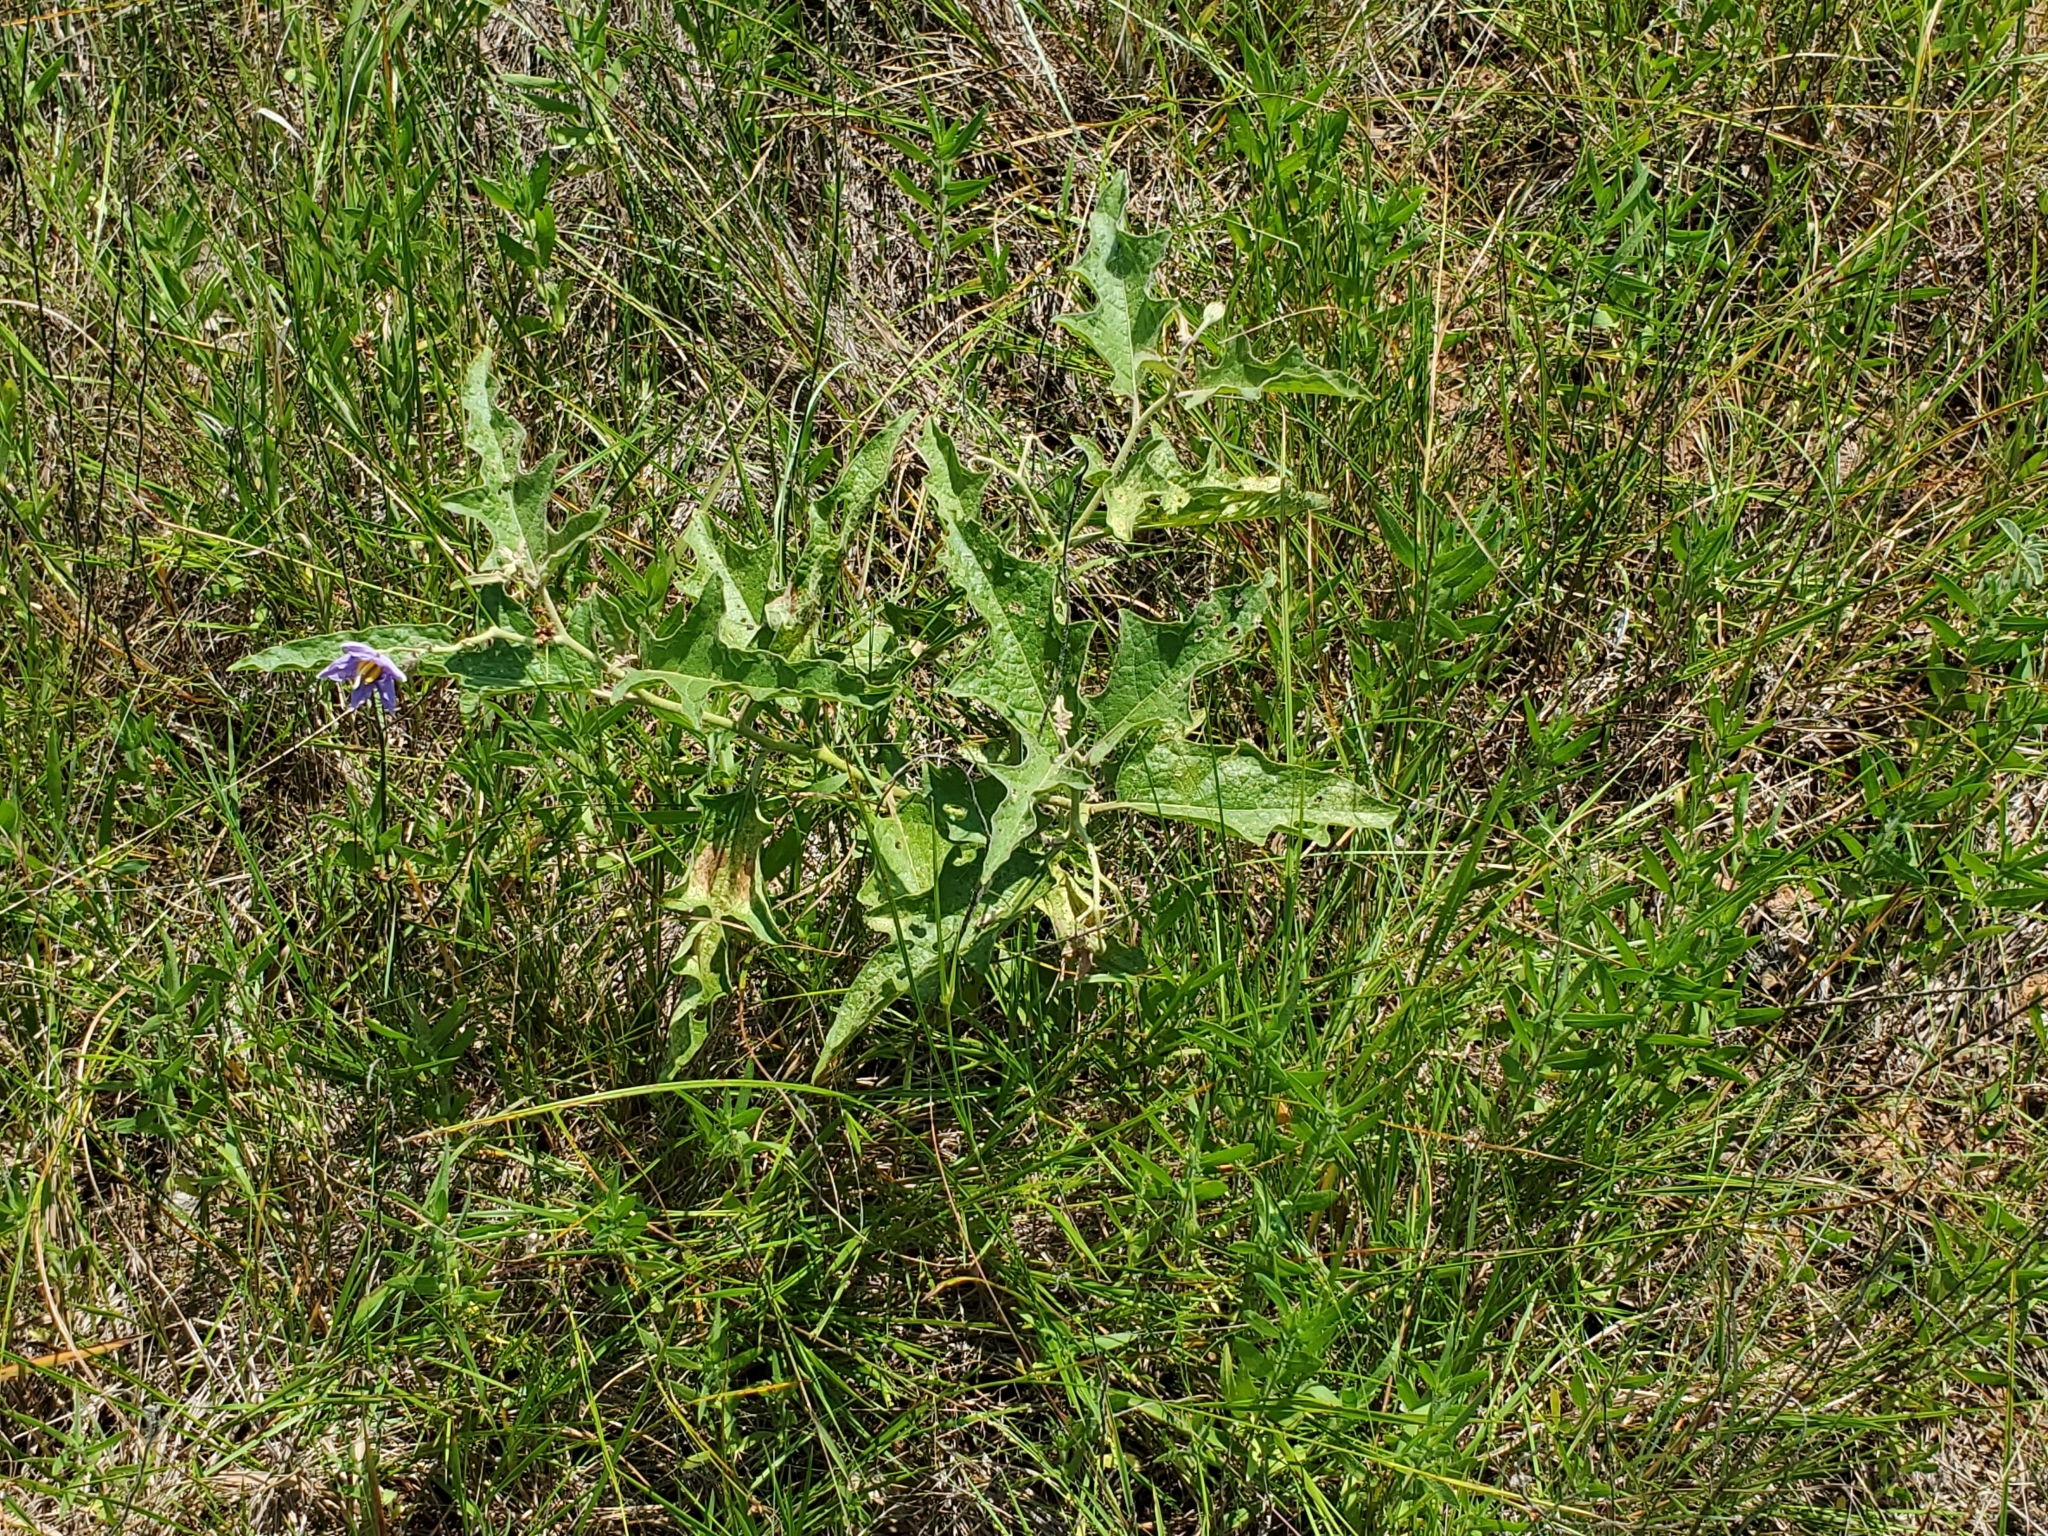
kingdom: Plantae
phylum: Tracheophyta
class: Magnoliopsida
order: Solanales
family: Solanaceae
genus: Solanum
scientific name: Solanum dimidiatum
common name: Carolina horse-nettle
